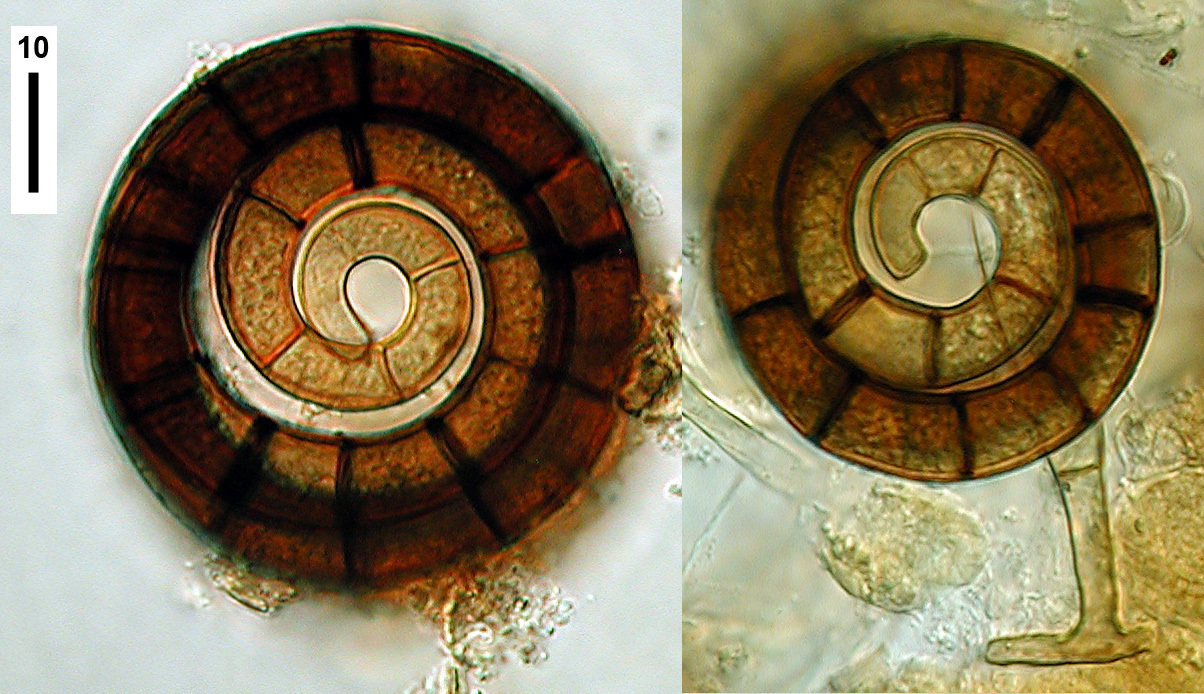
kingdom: Fungi
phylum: Ascomycota
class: Orbiliomycetes
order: Orbiliales
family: Orbiliaceae
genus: Helicoon
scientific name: Helicoon
